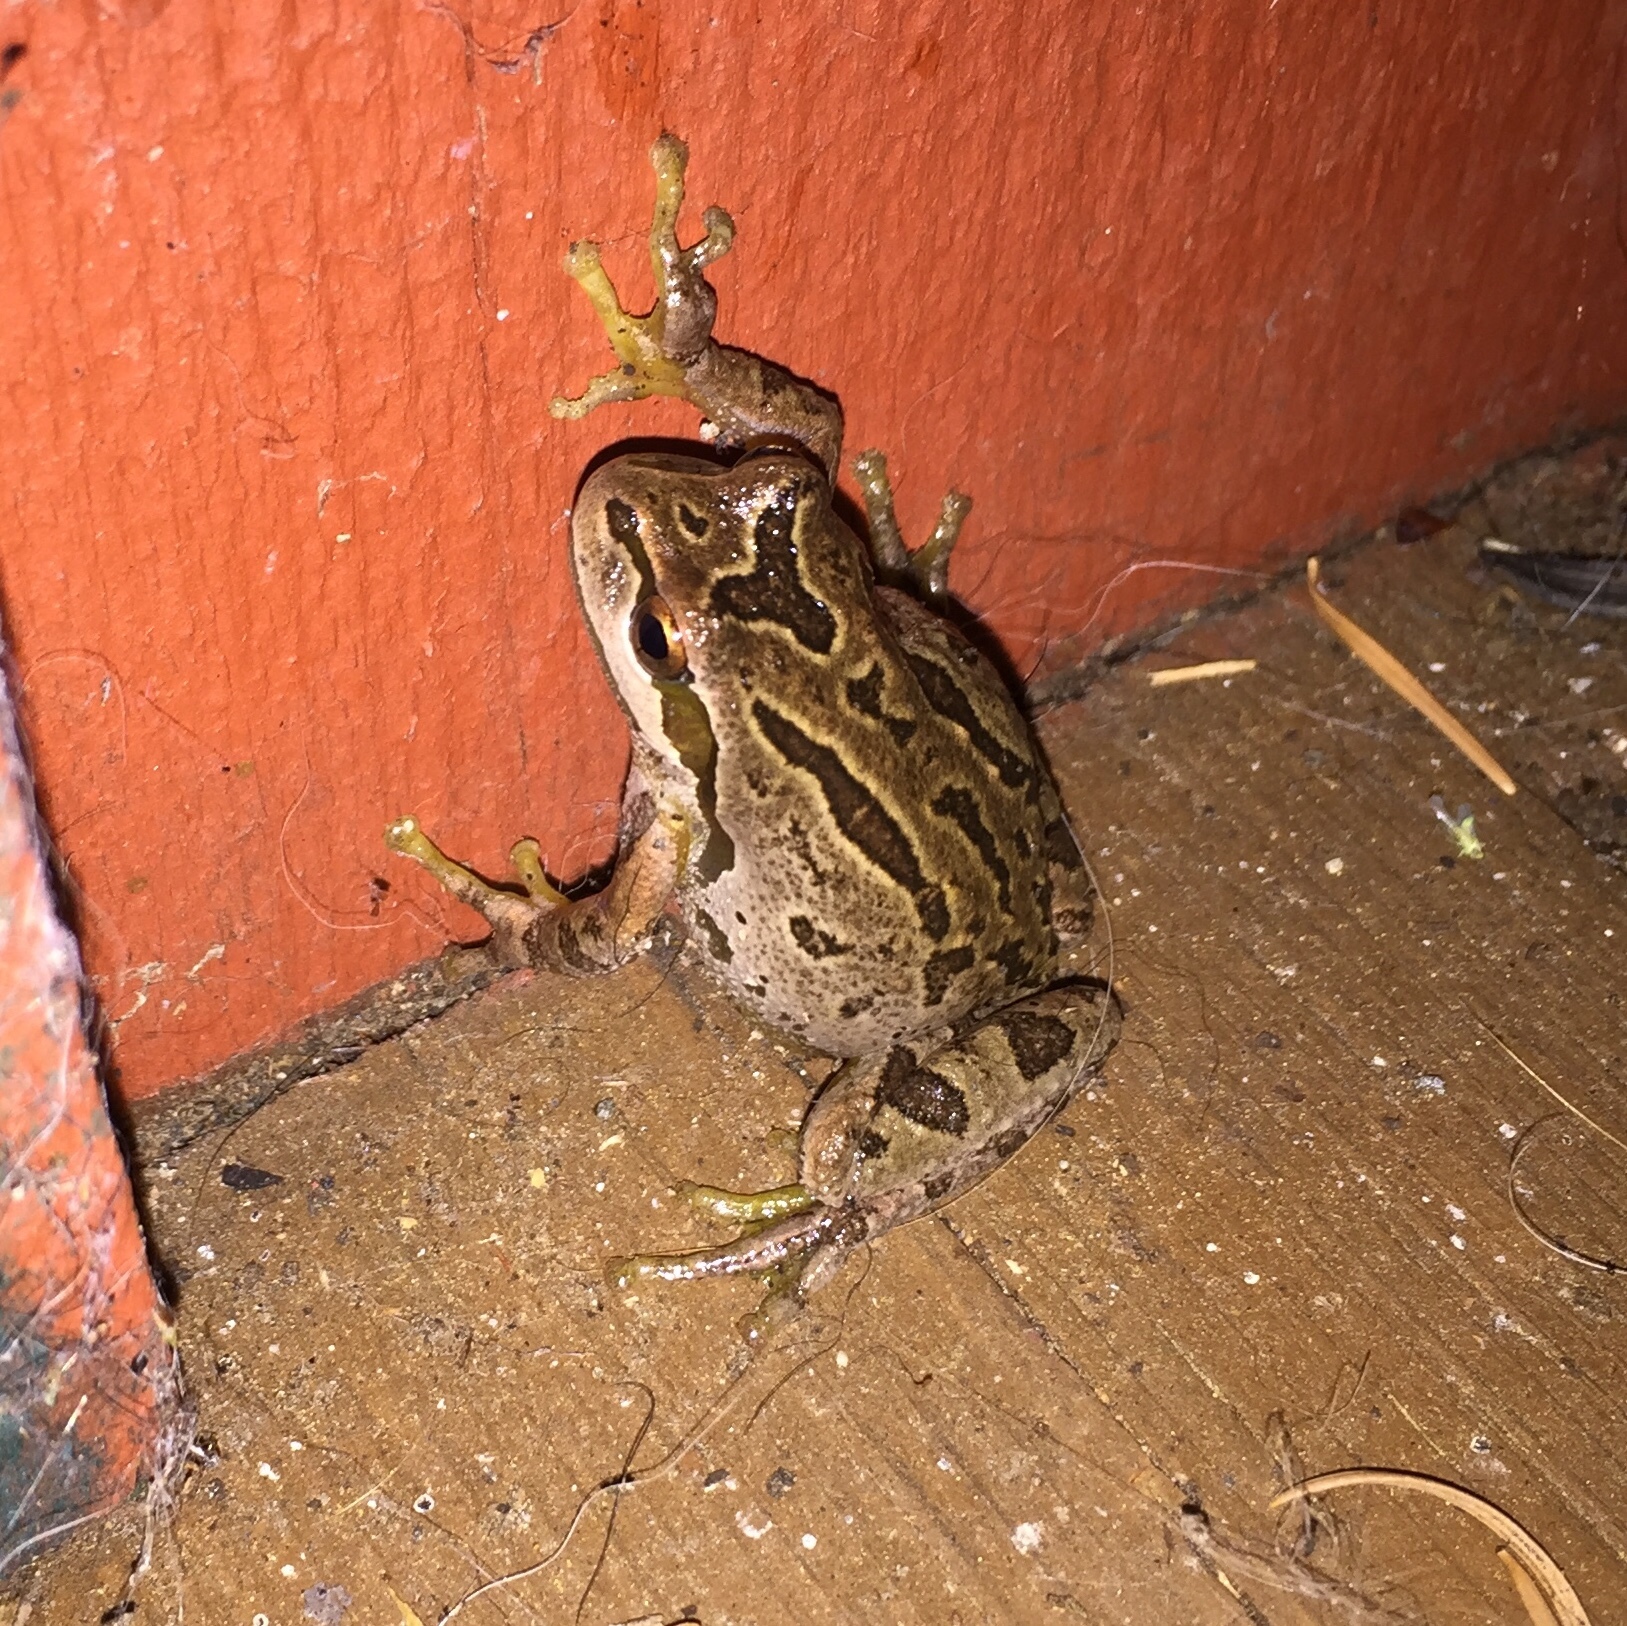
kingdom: Animalia
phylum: Chordata
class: Amphibia
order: Anura
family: Hylidae
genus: Pseudacris
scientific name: Pseudacris regilla
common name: Pacific chorus frog
